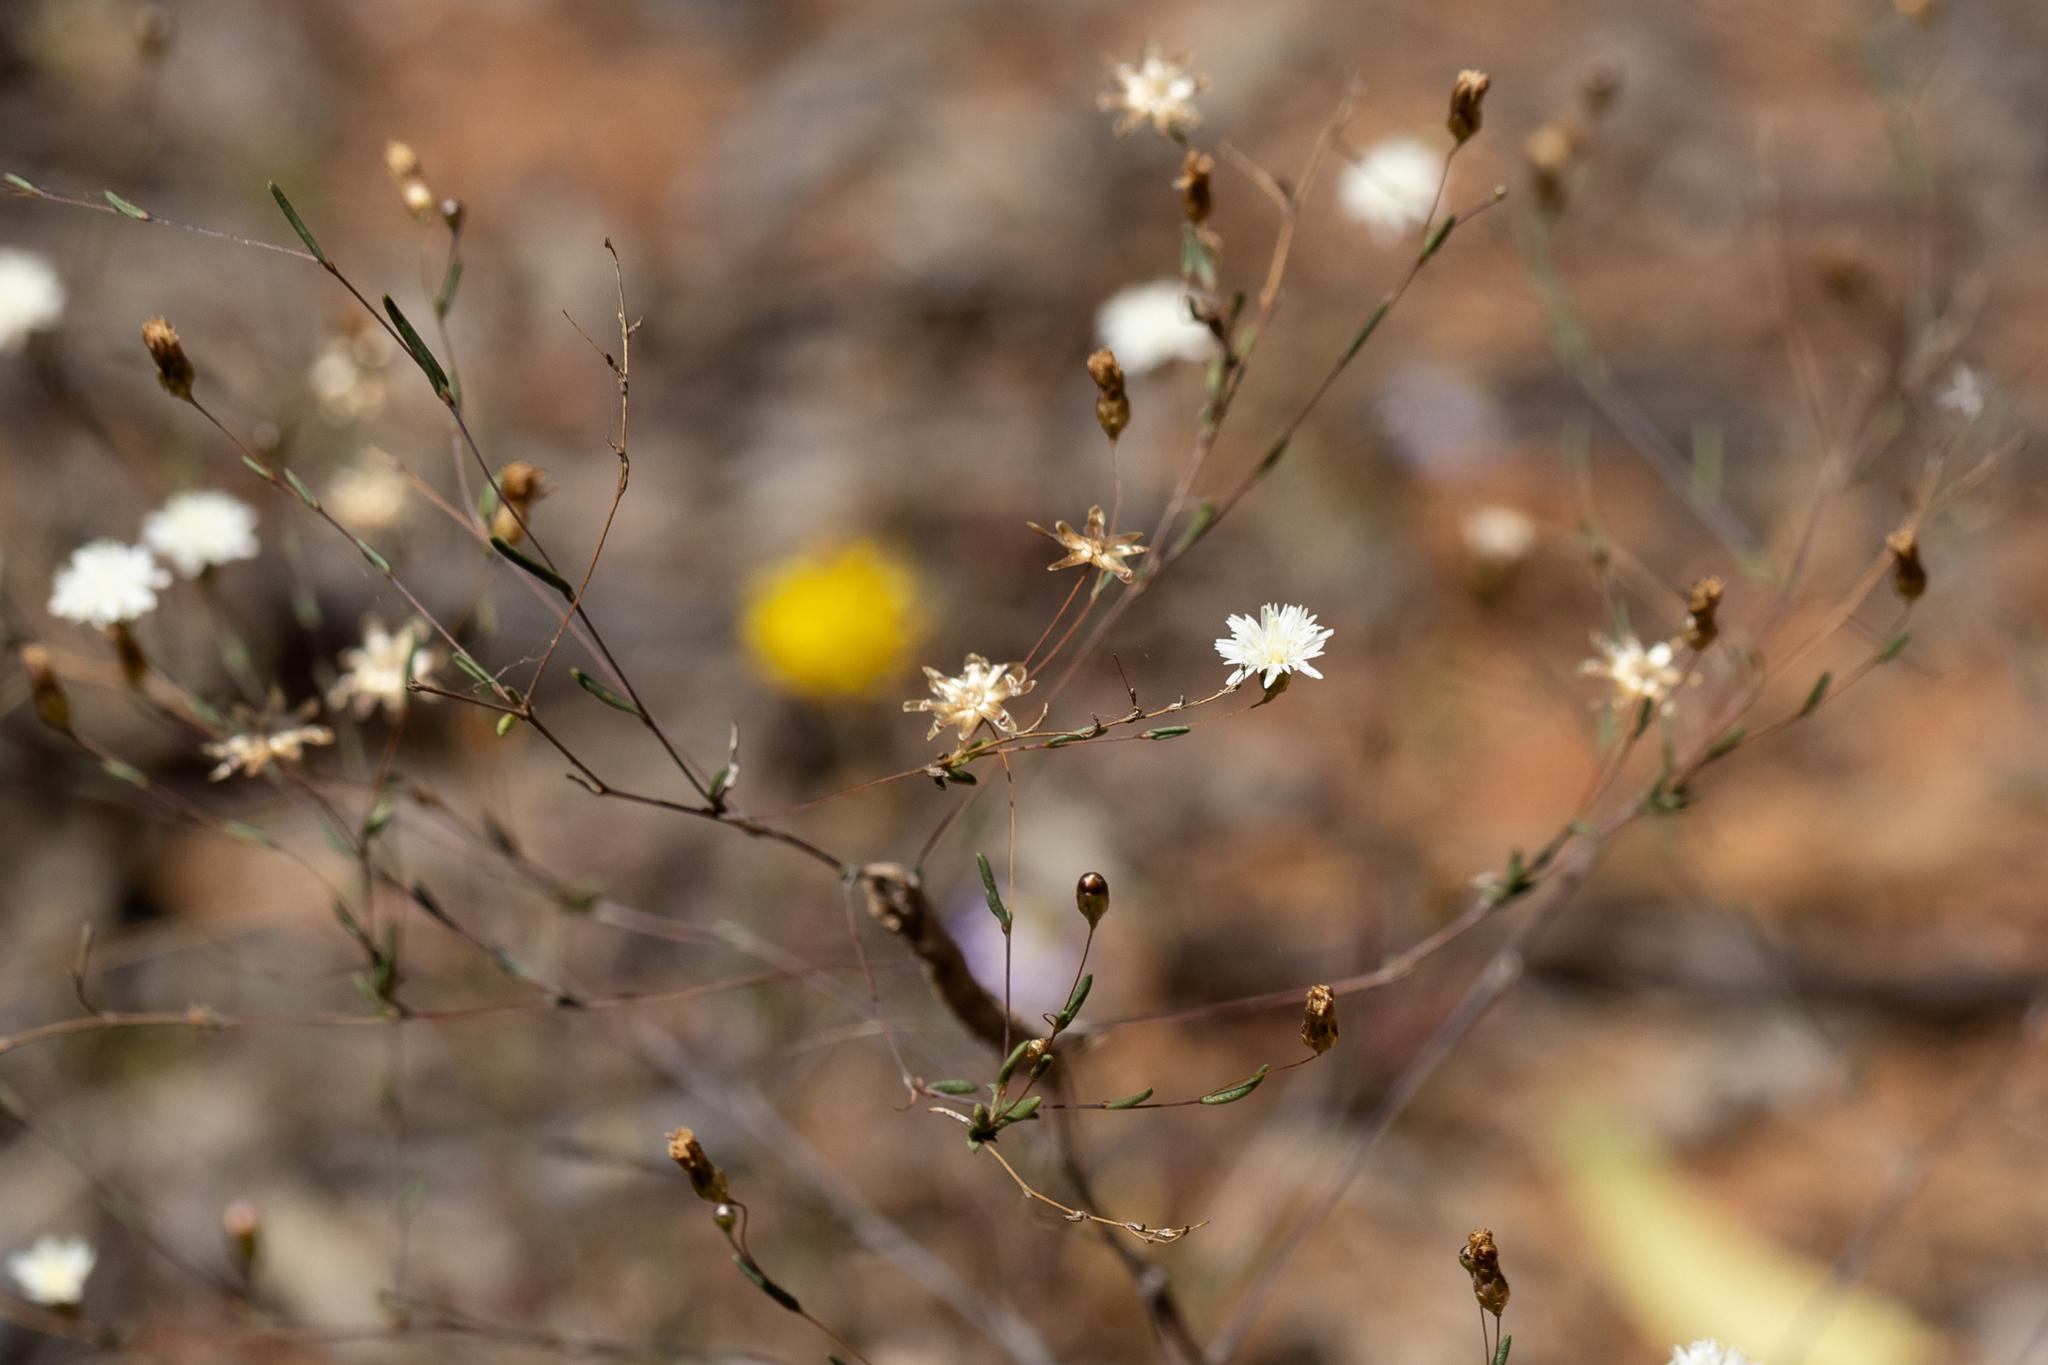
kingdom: Plantae
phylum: Tracheophyta
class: Magnoliopsida
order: Asterales
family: Asteraceae
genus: Siemssenia
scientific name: Siemssenia capillaris
